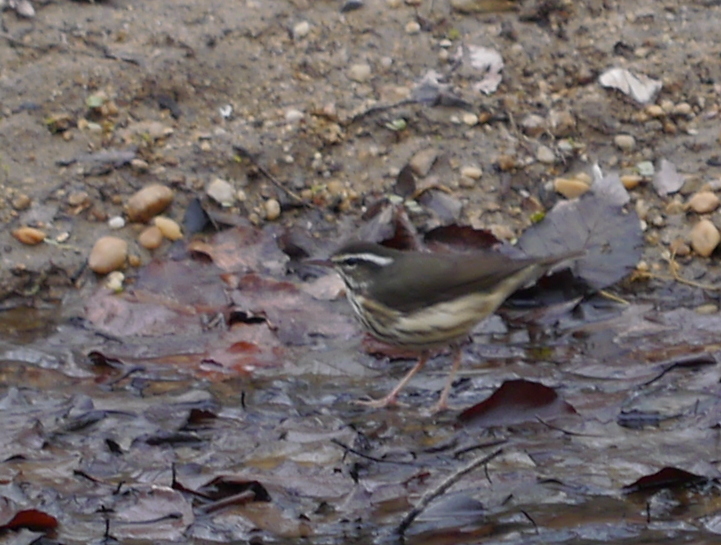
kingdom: Animalia
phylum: Chordata
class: Aves
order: Passeriformes
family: Parulidae
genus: Parkesia
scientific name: Parkesia motacilla
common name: Louisiana waterthrush
